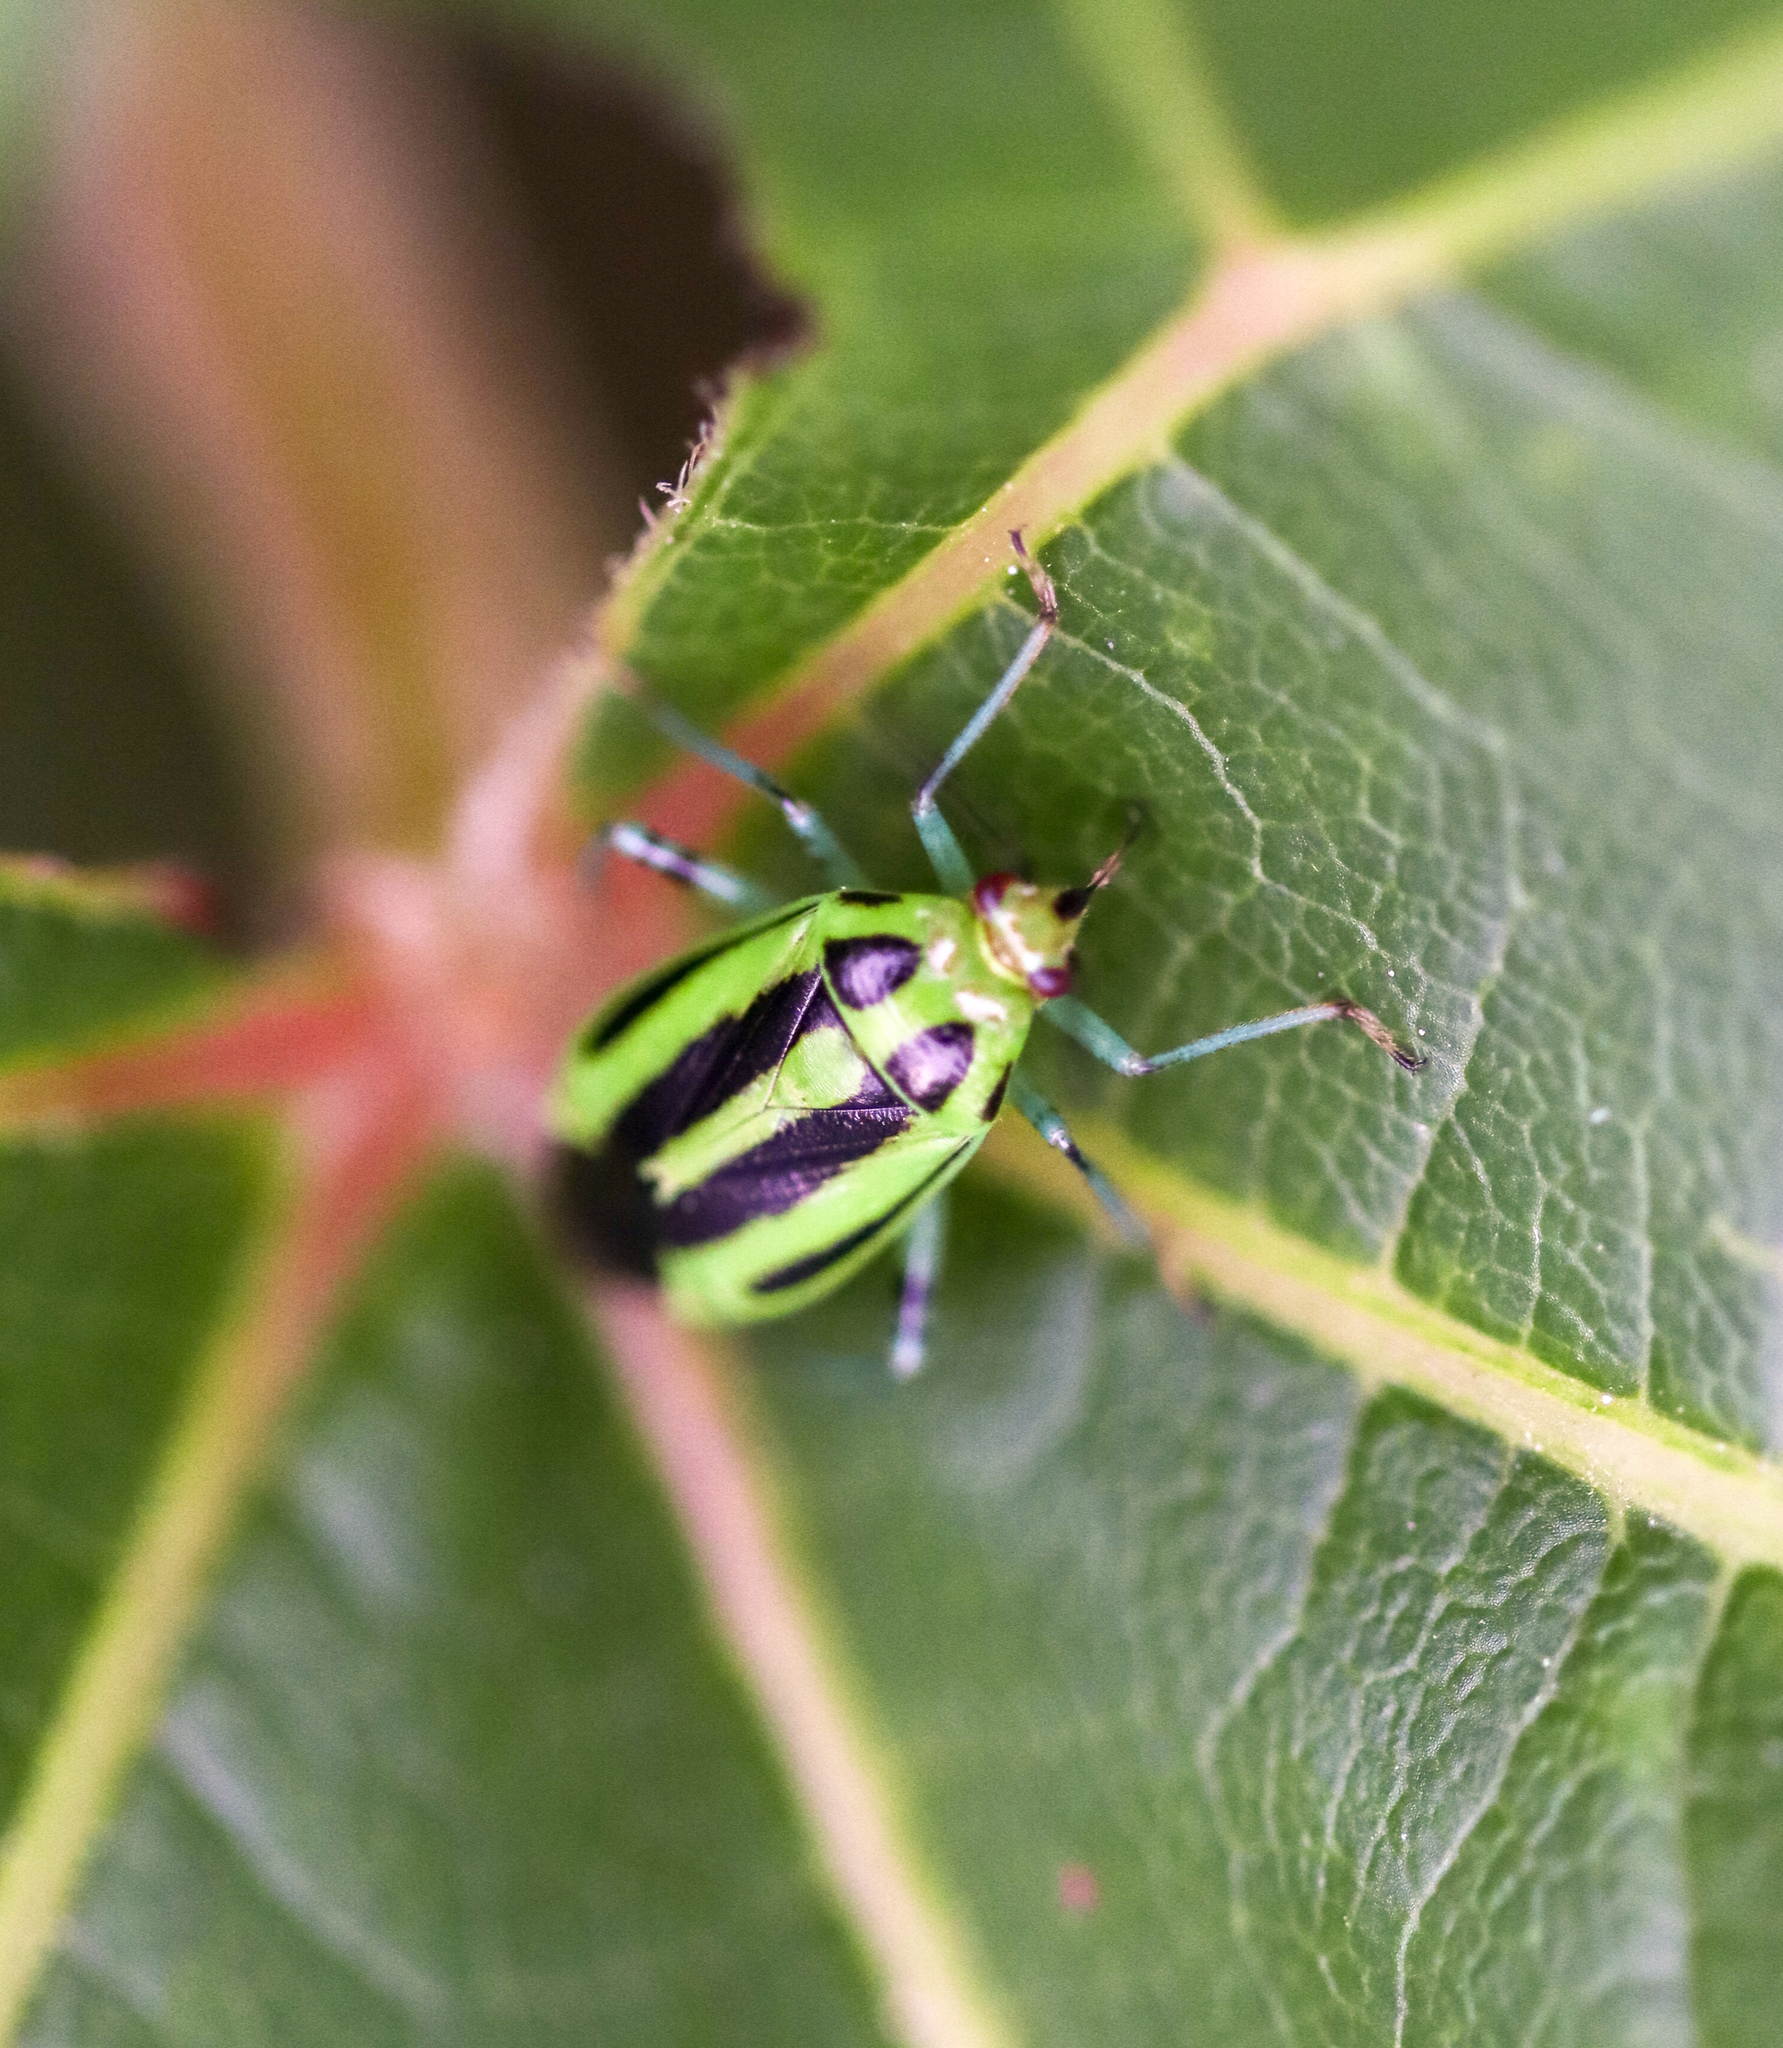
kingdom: Animalia
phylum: Arthropoda
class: Insecta
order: Hemiptera
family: Miridae
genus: Poecilocapsus
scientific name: Poecilocapsus lineatus
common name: Four-lined plant bug
